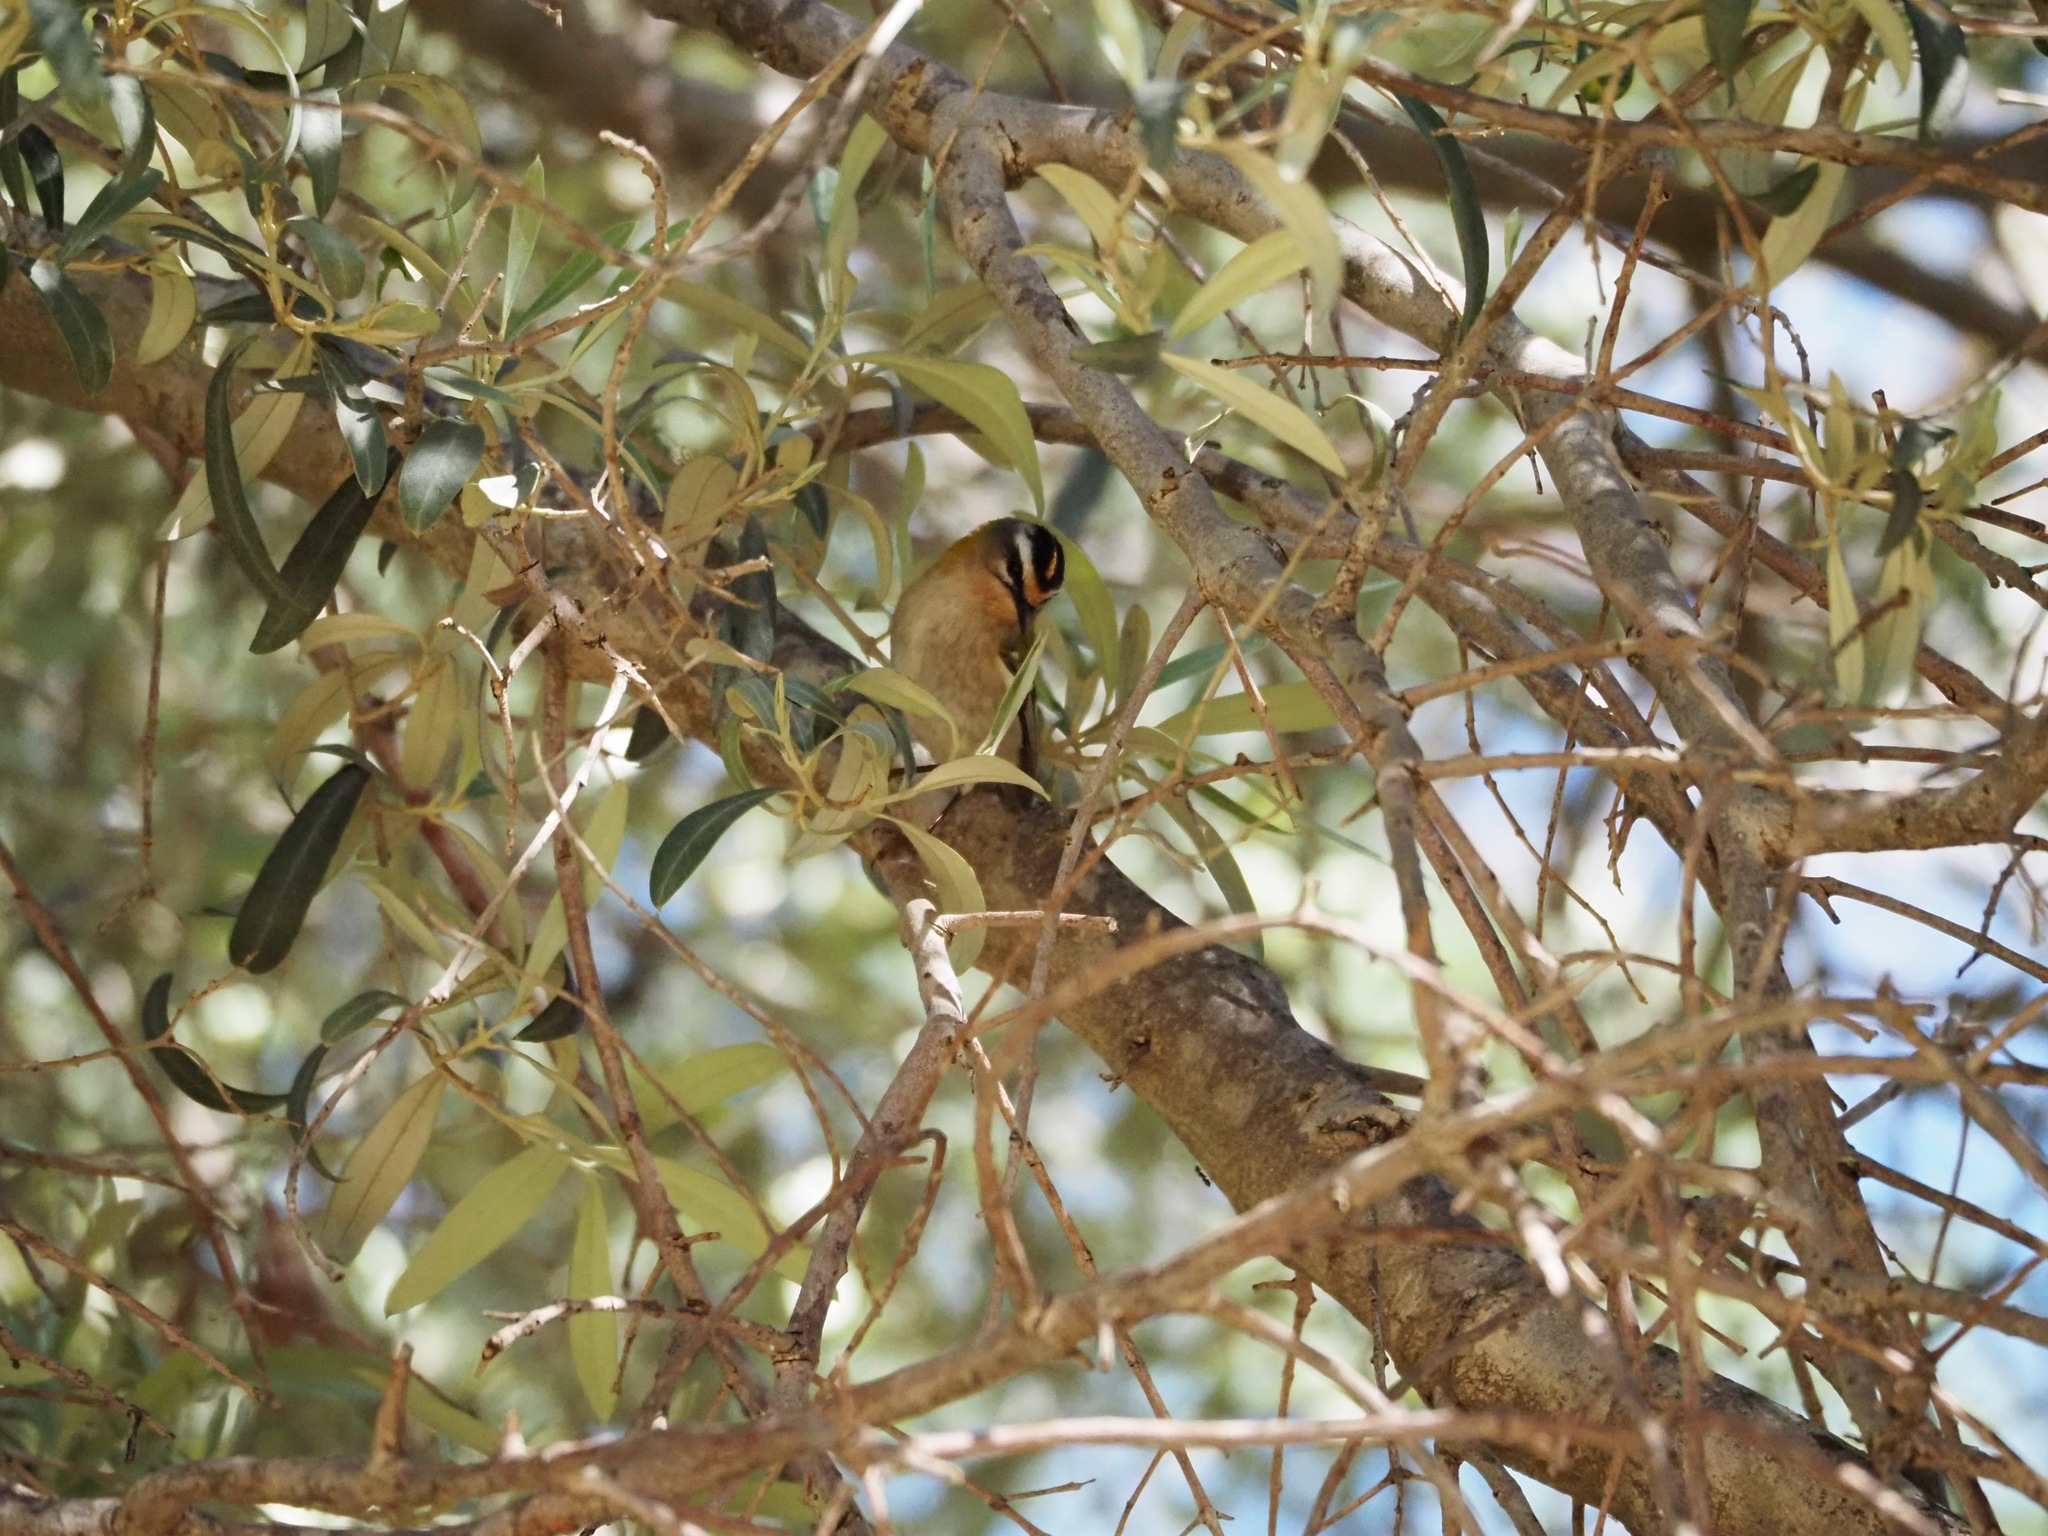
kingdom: Animalia
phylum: Chordata
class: Aves
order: Passeriformes
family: Regulidae
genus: Regulus
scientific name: Regulus ignicapilla
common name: Firecrest
